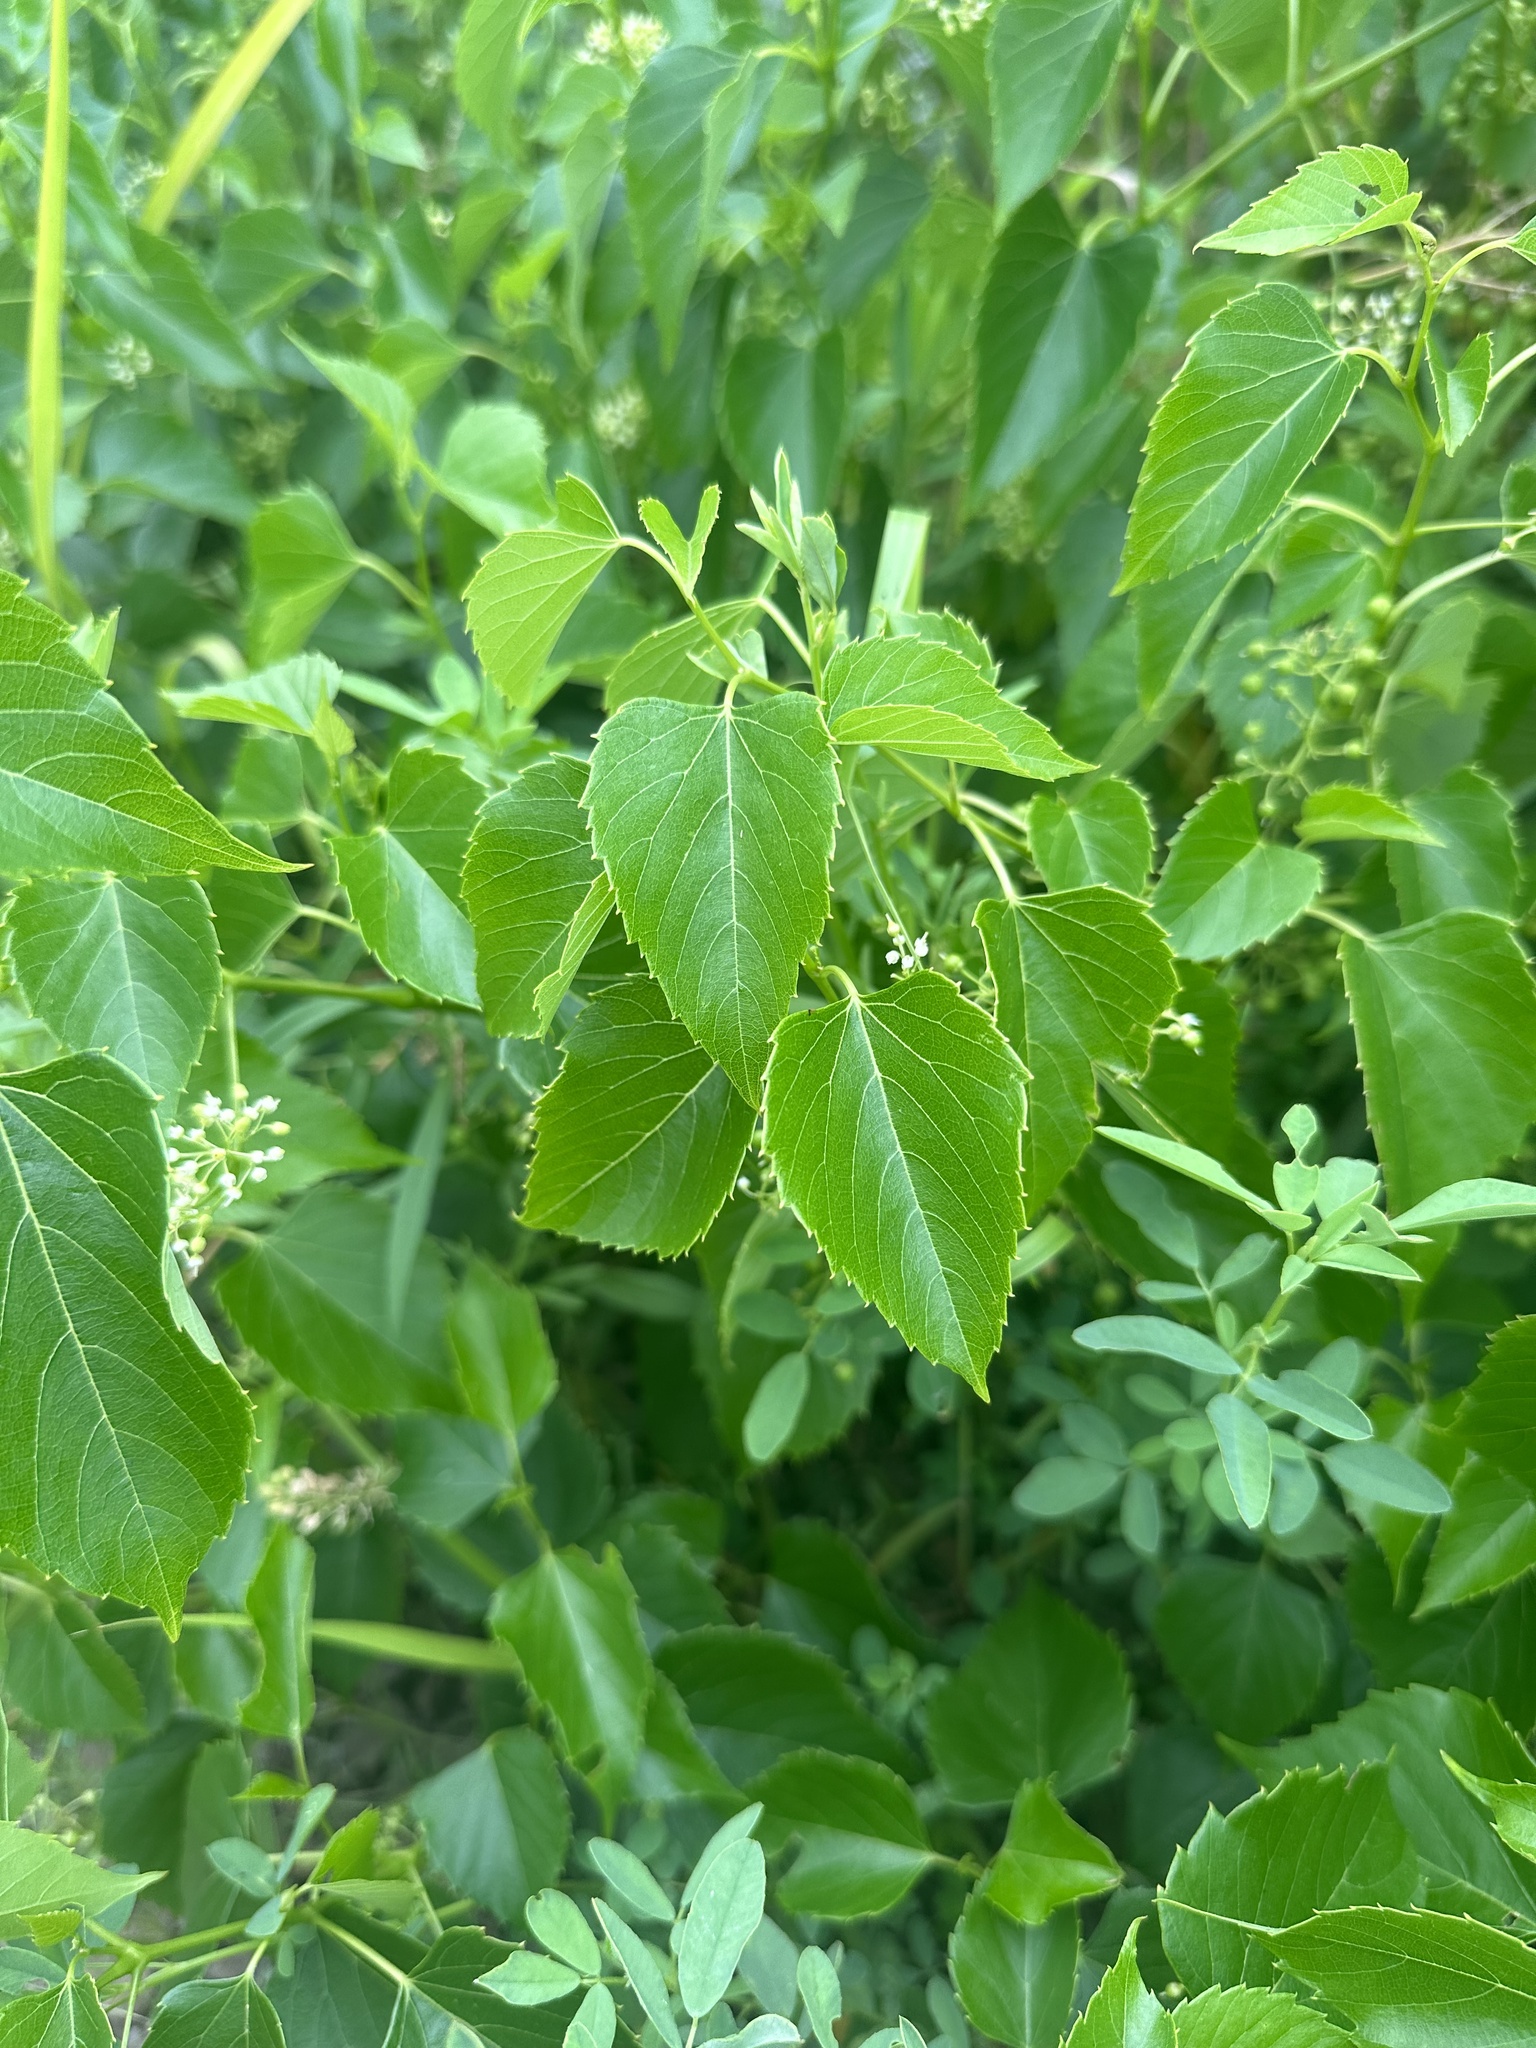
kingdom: Plantae
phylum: Tracheophyta
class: Magnoliopsida
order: Vitales
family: Vitaceae
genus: Ampelopsis
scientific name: Ampelopsis cordata
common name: Heart-leaf ampelopsis
